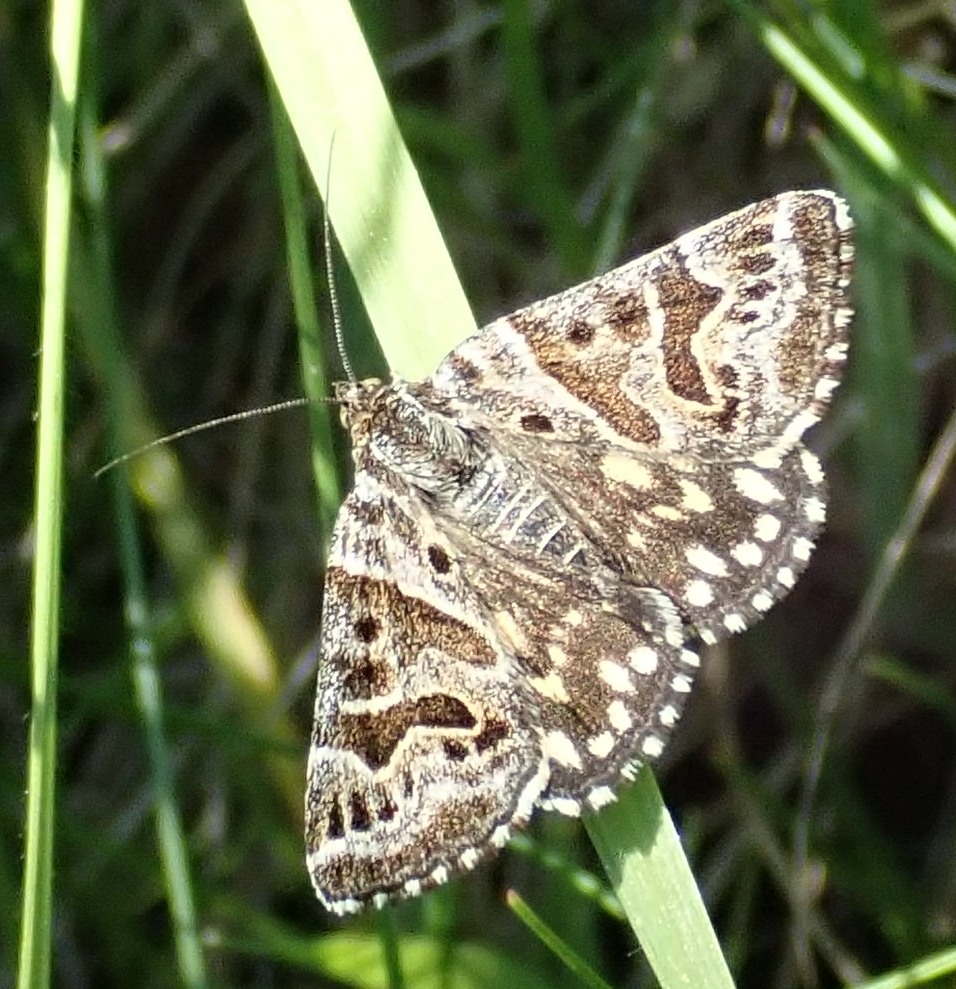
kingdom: Animalia
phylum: Arthropoda
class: Insecta
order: Lepidoptera
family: Erebidae
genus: Callistege
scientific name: Callistege mi
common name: Mother shipton
